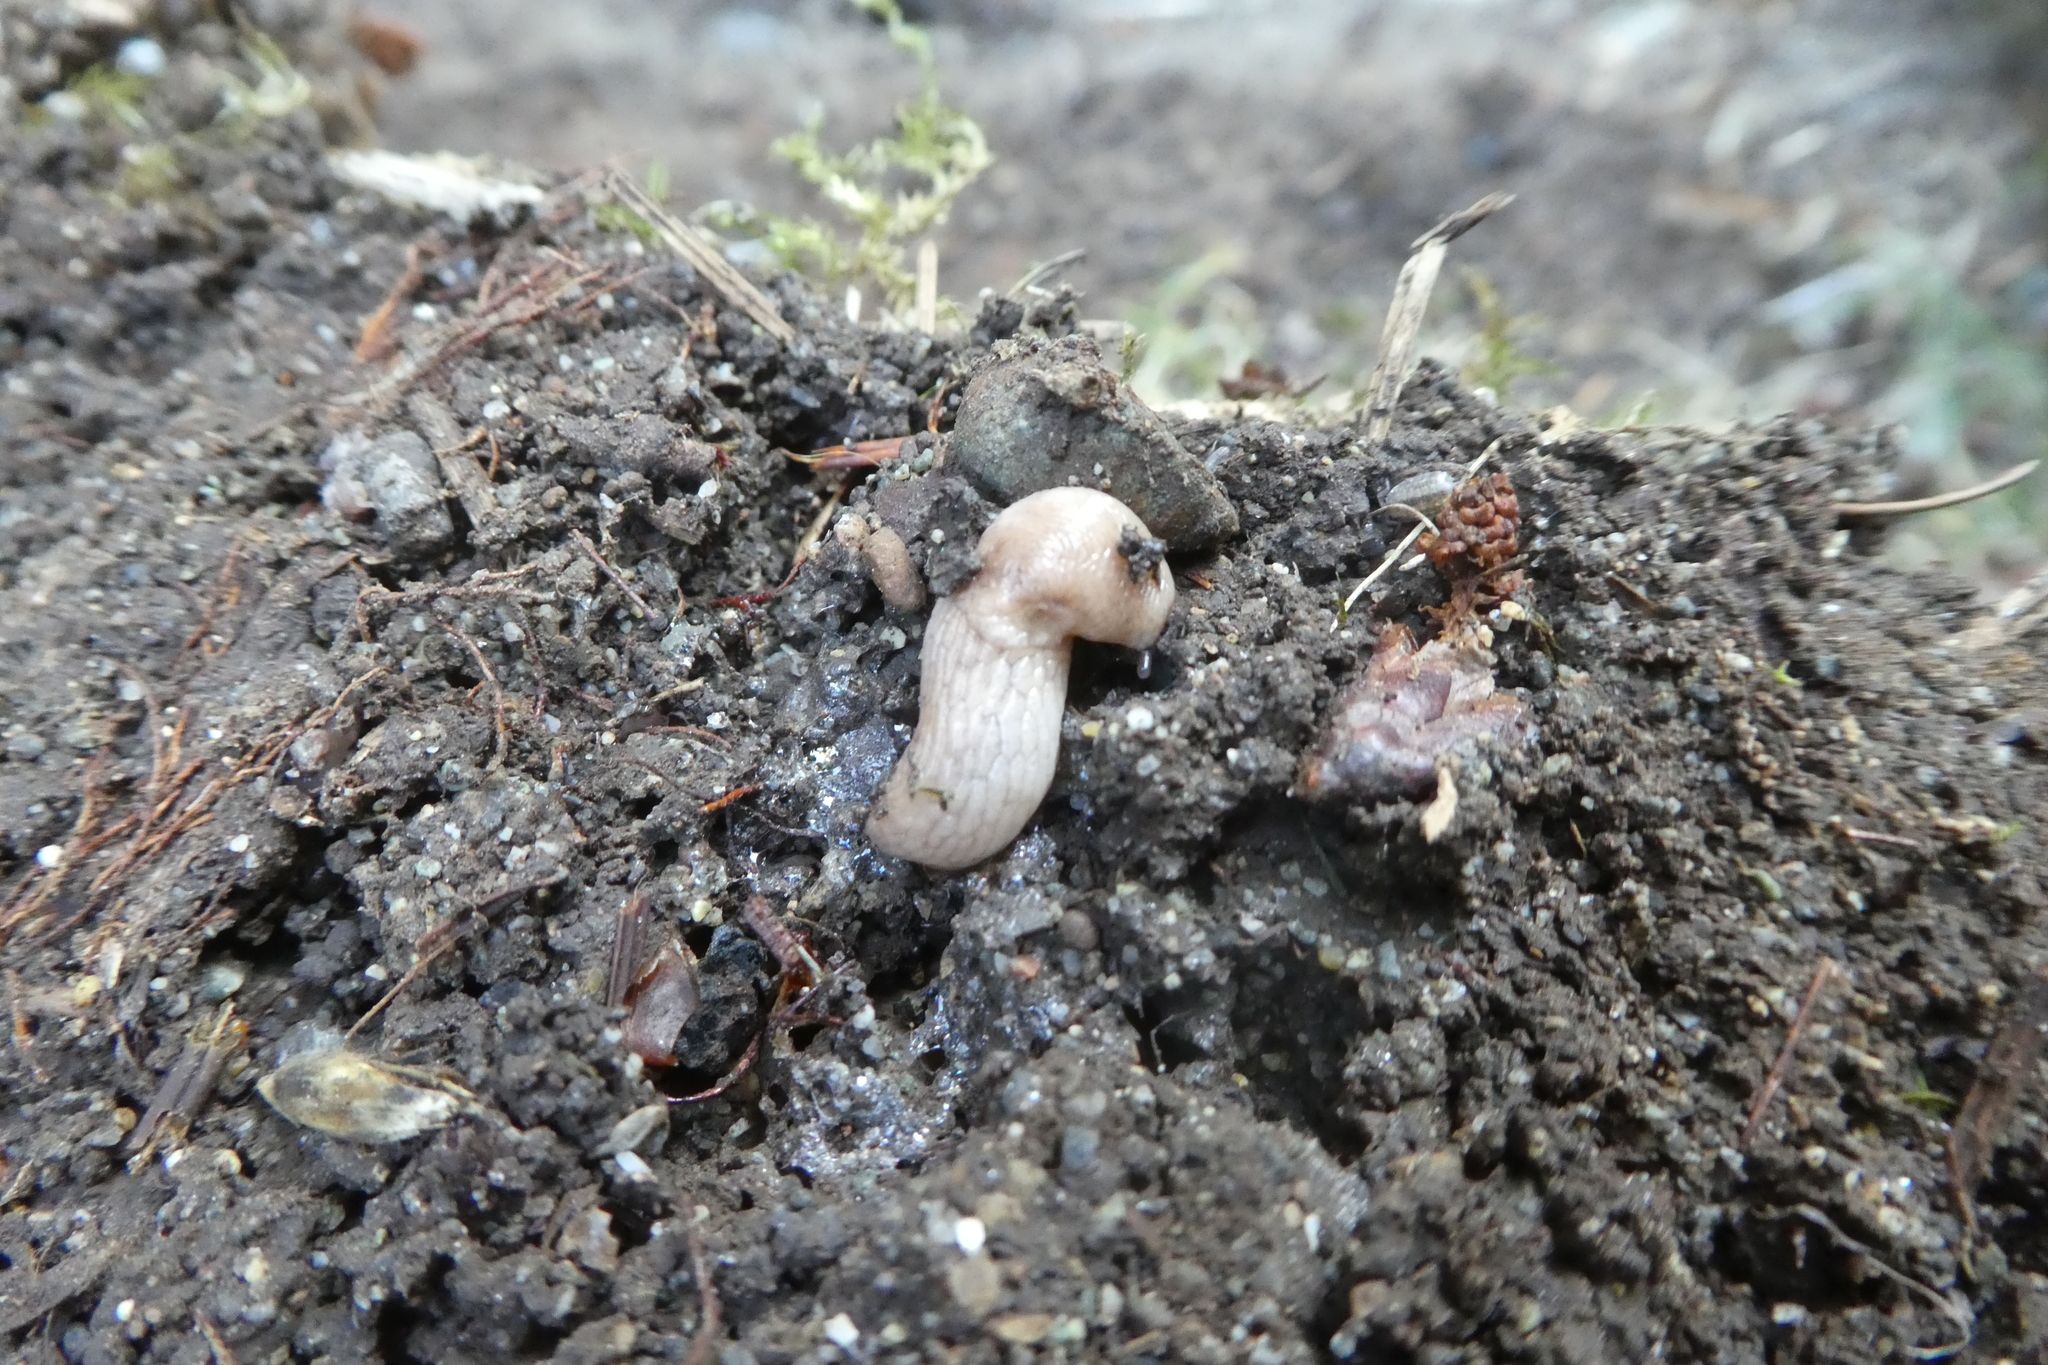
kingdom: Animalia
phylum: Mollusca
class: Gastropoda
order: Stylommatophora
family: Agriolimacidae
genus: Deroceras
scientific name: Deroceras reticulatum
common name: Gray field slug
